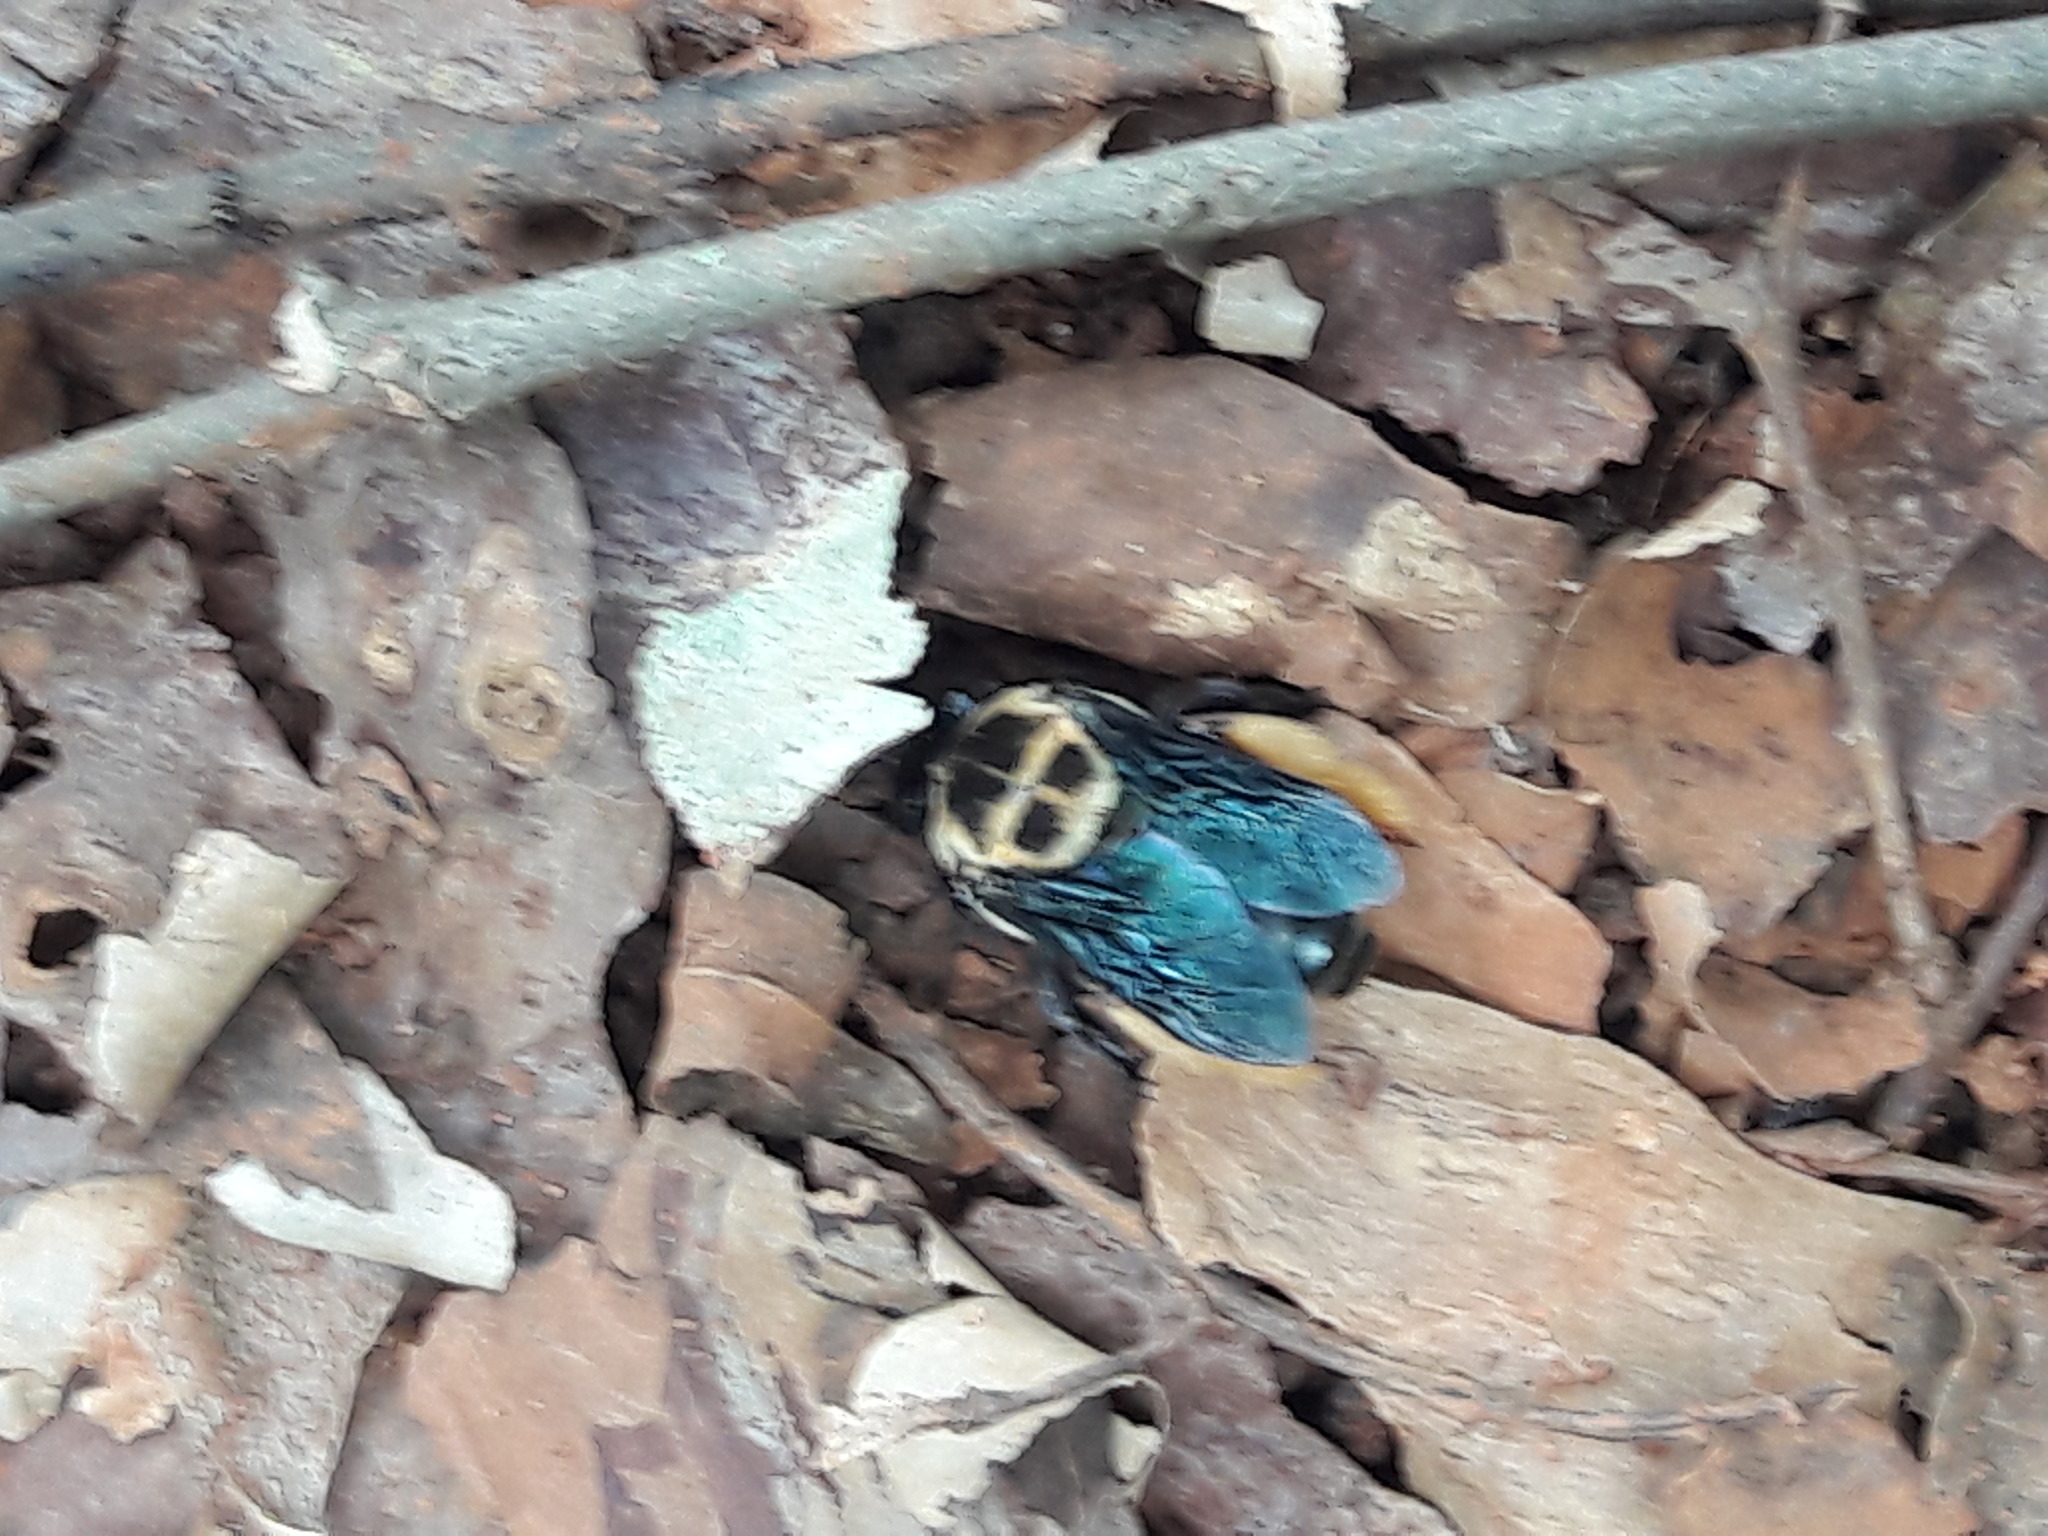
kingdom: Animalia
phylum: Arthropoda
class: Insecta
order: Hymenoptera
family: Apidae
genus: Centris
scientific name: Centris mocsaryi
